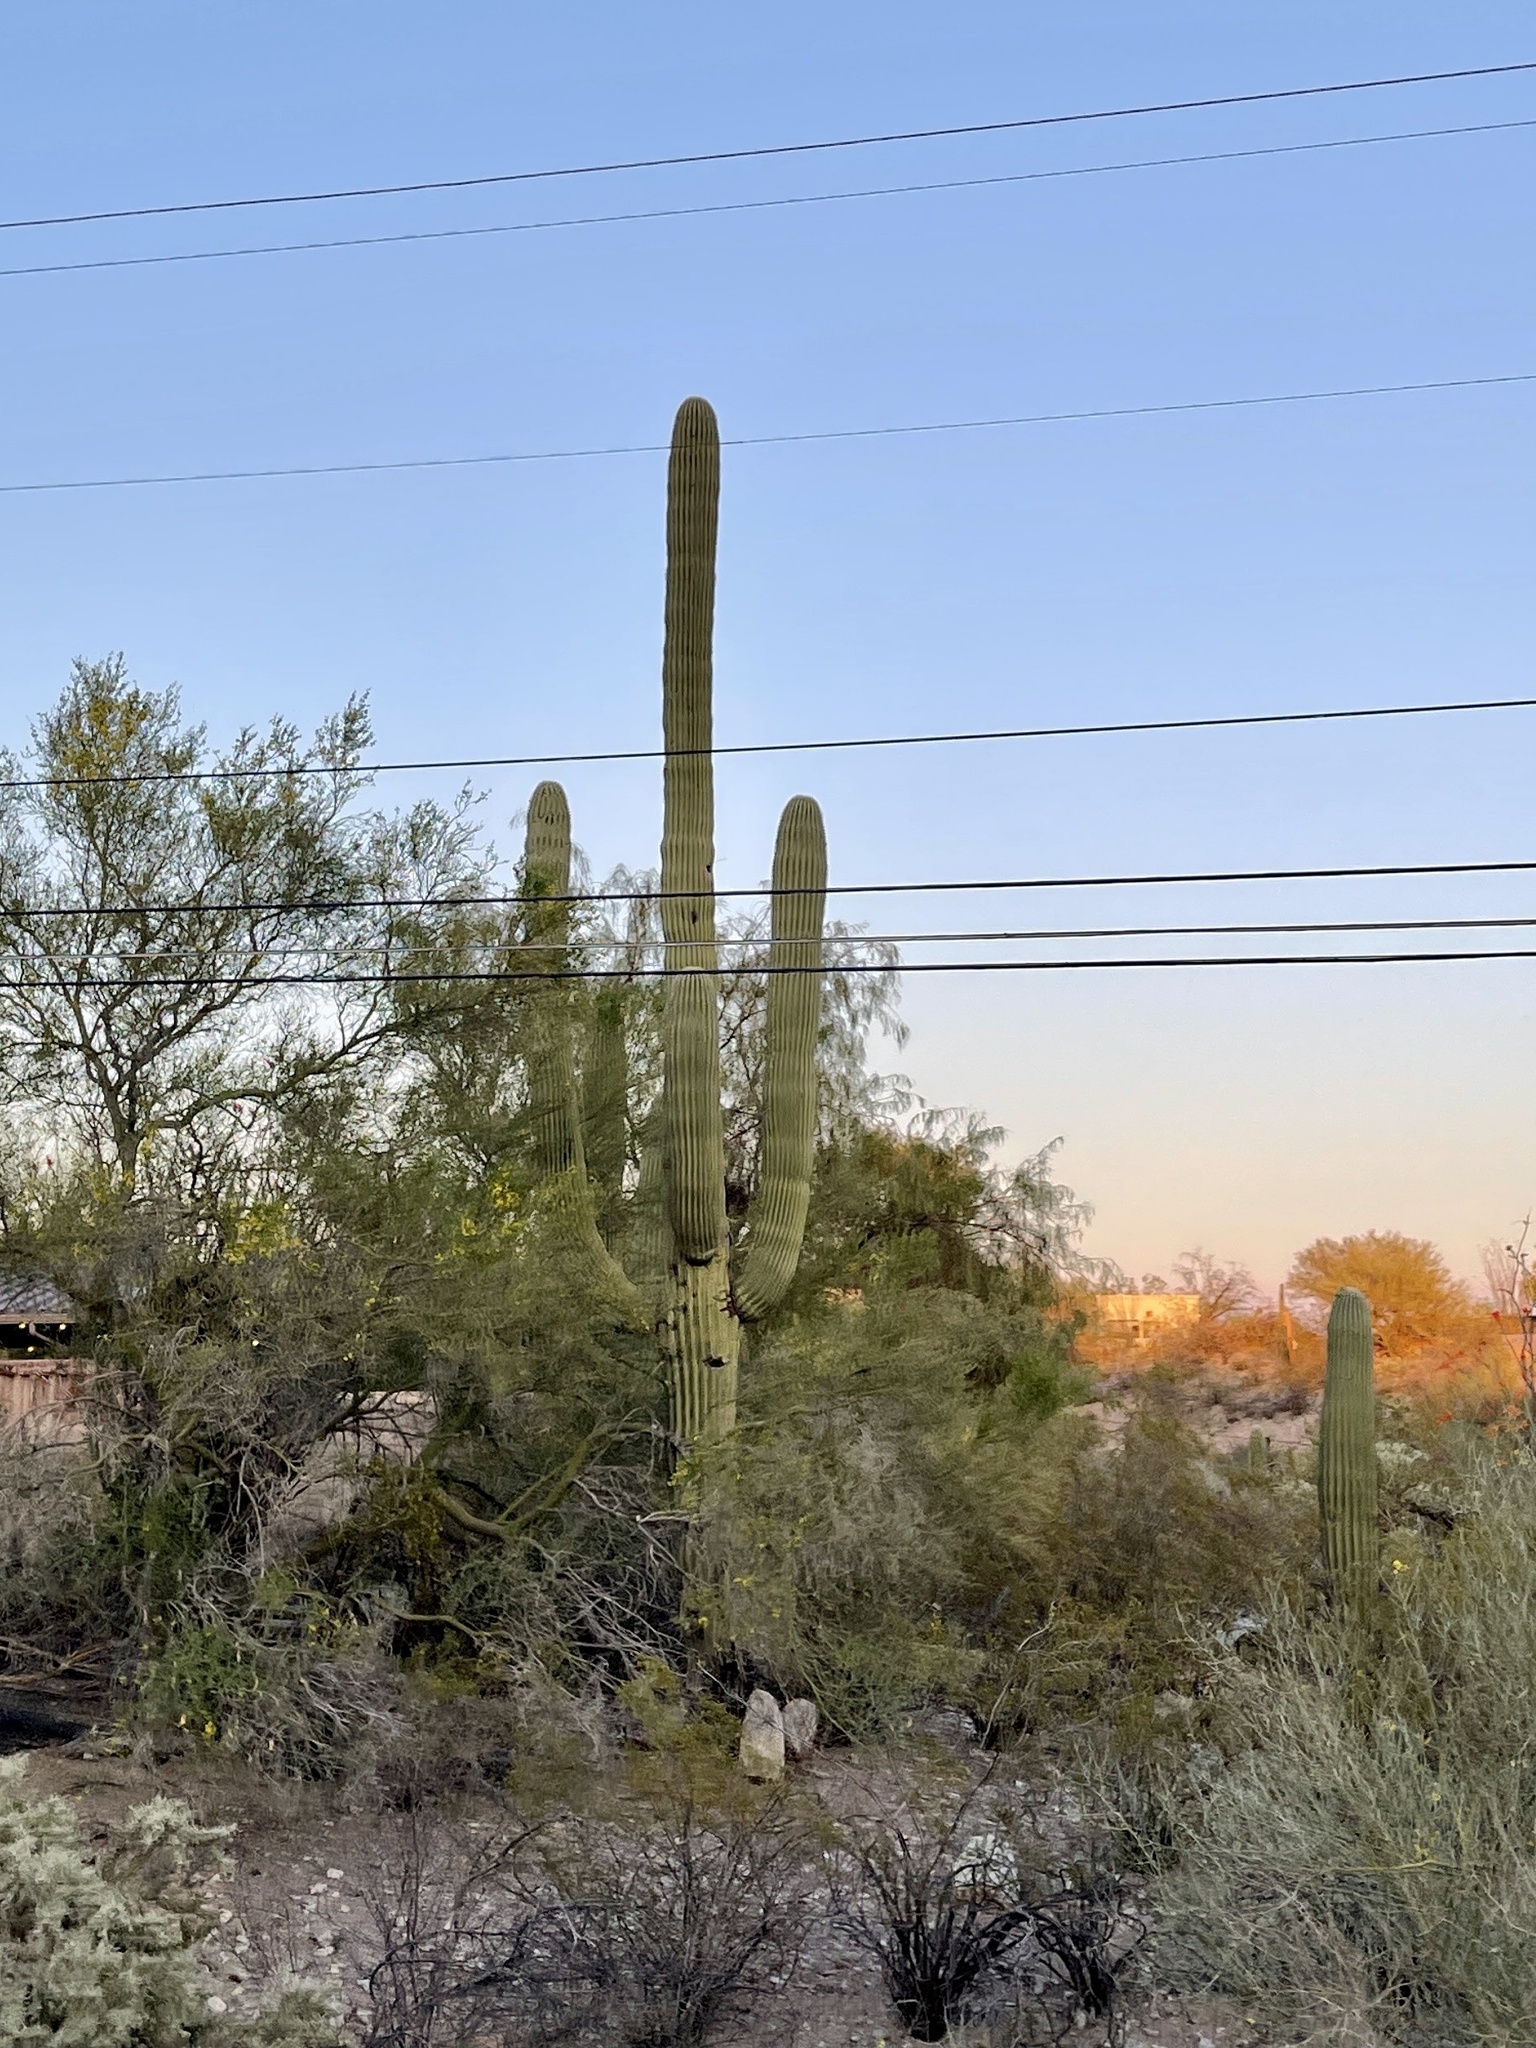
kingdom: Plantae
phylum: Tracheophyta
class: Magnoliopsida
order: Caryophyllales
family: Cactaceae
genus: Carnegiea
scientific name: Carnegiea gigantea
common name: Saguaro
